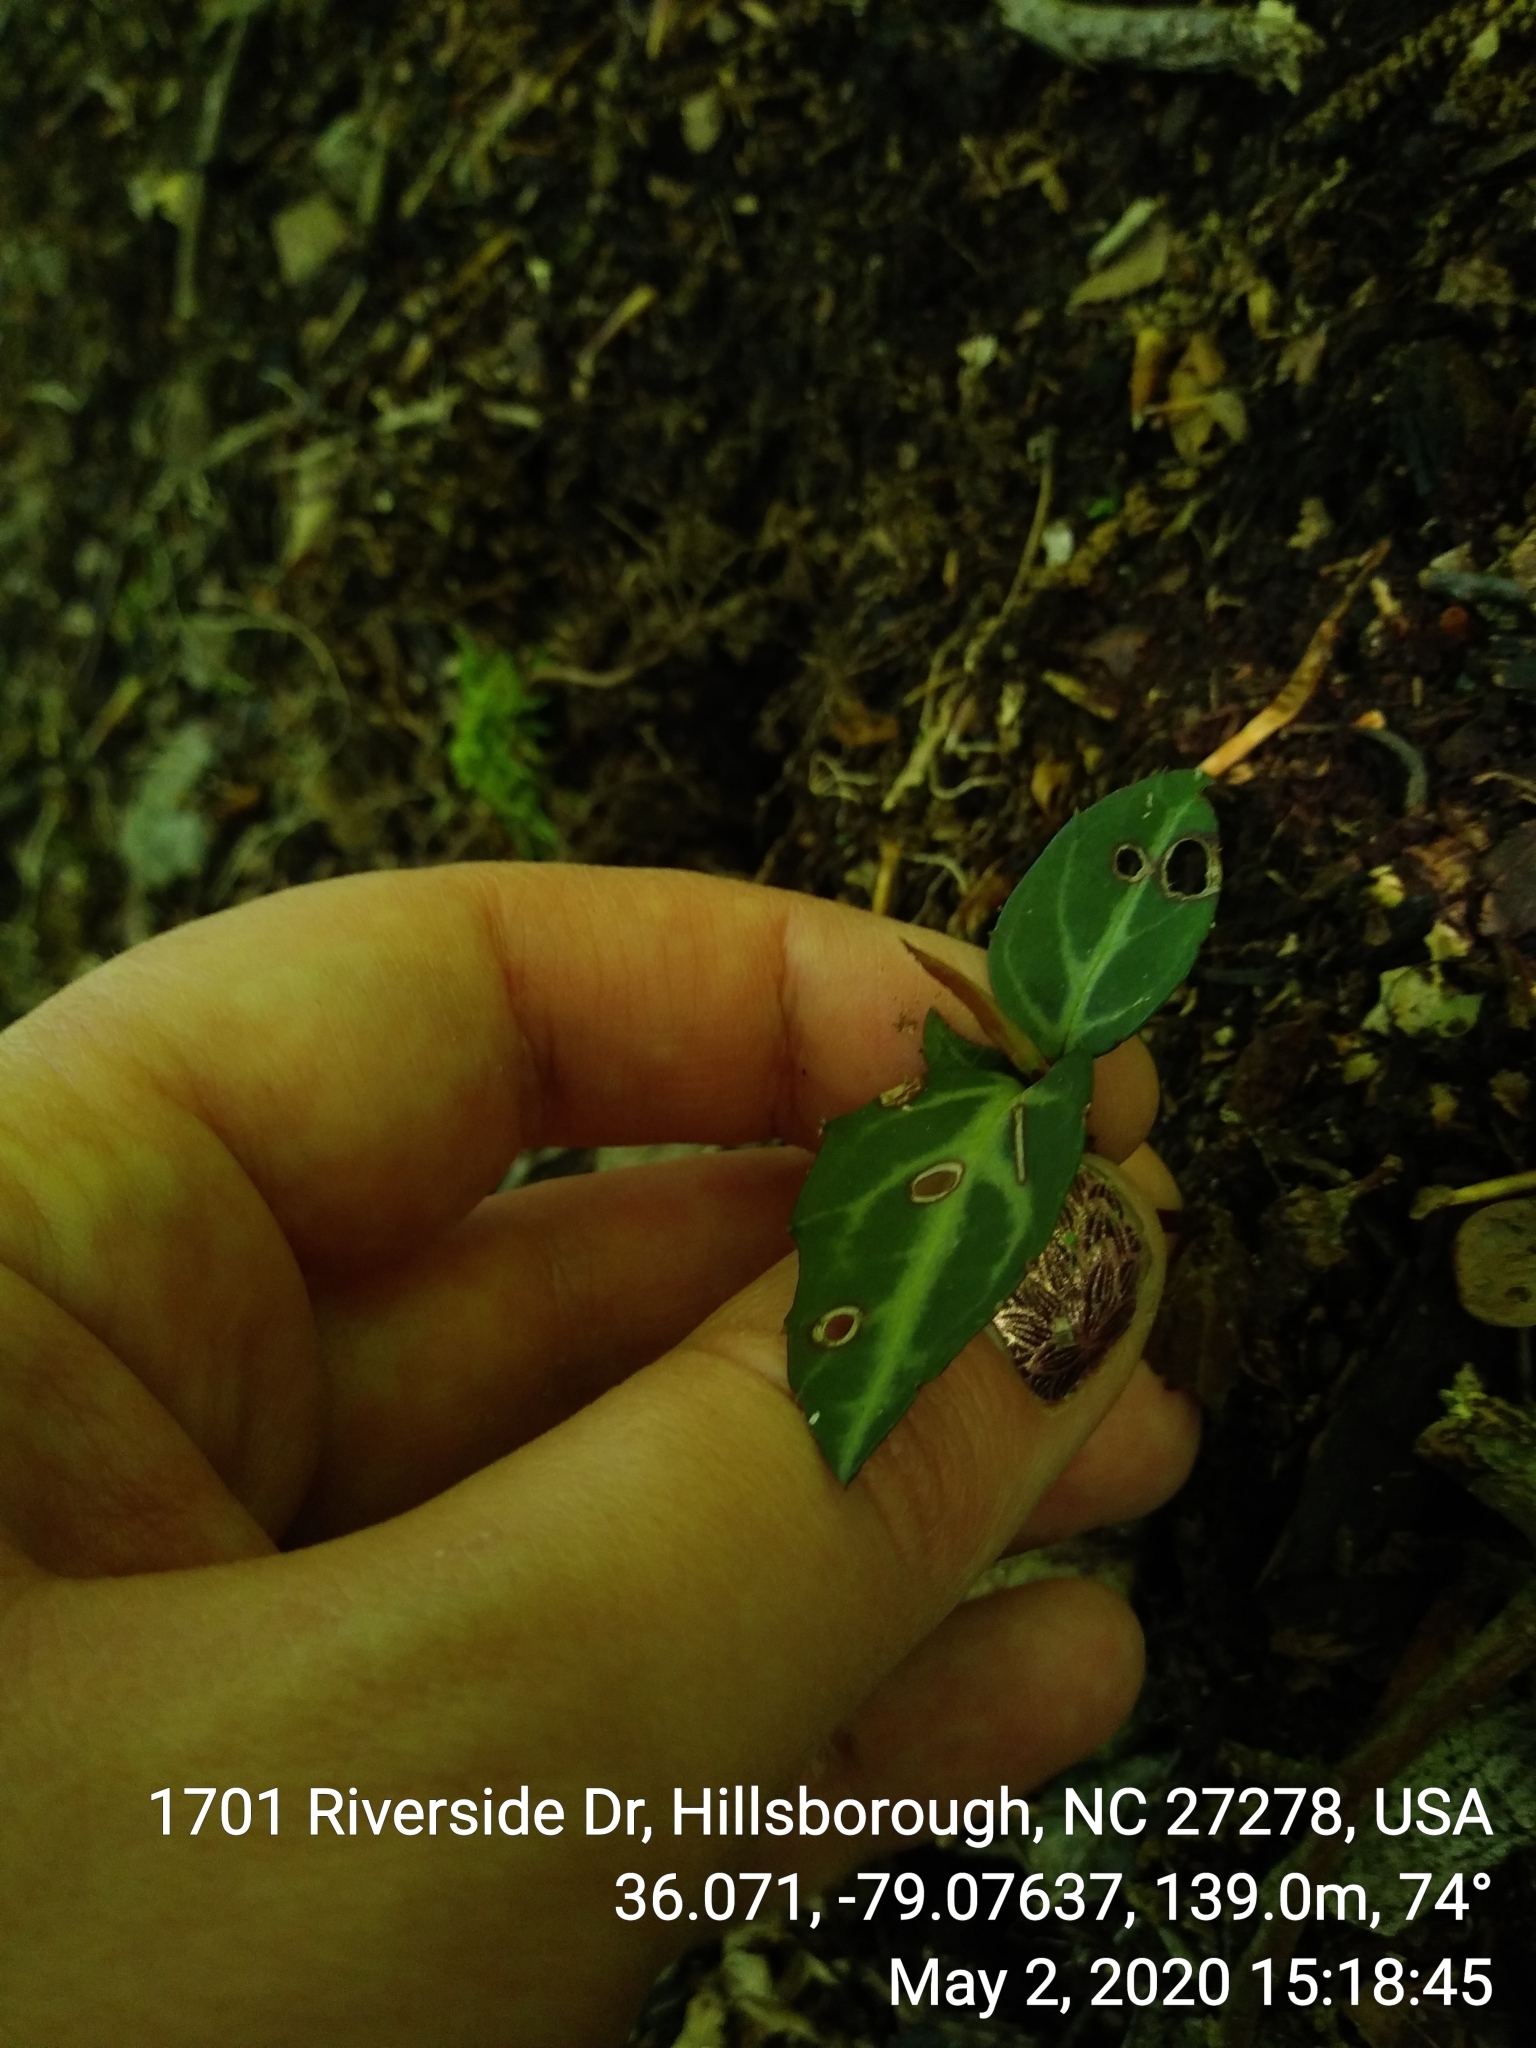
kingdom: Plantae
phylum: Tracheophyta
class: Magnoliopsida
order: Ericales
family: Ericaceae
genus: Chimaphila
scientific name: Chimaphila maculata
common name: Spotted pipsissewa
